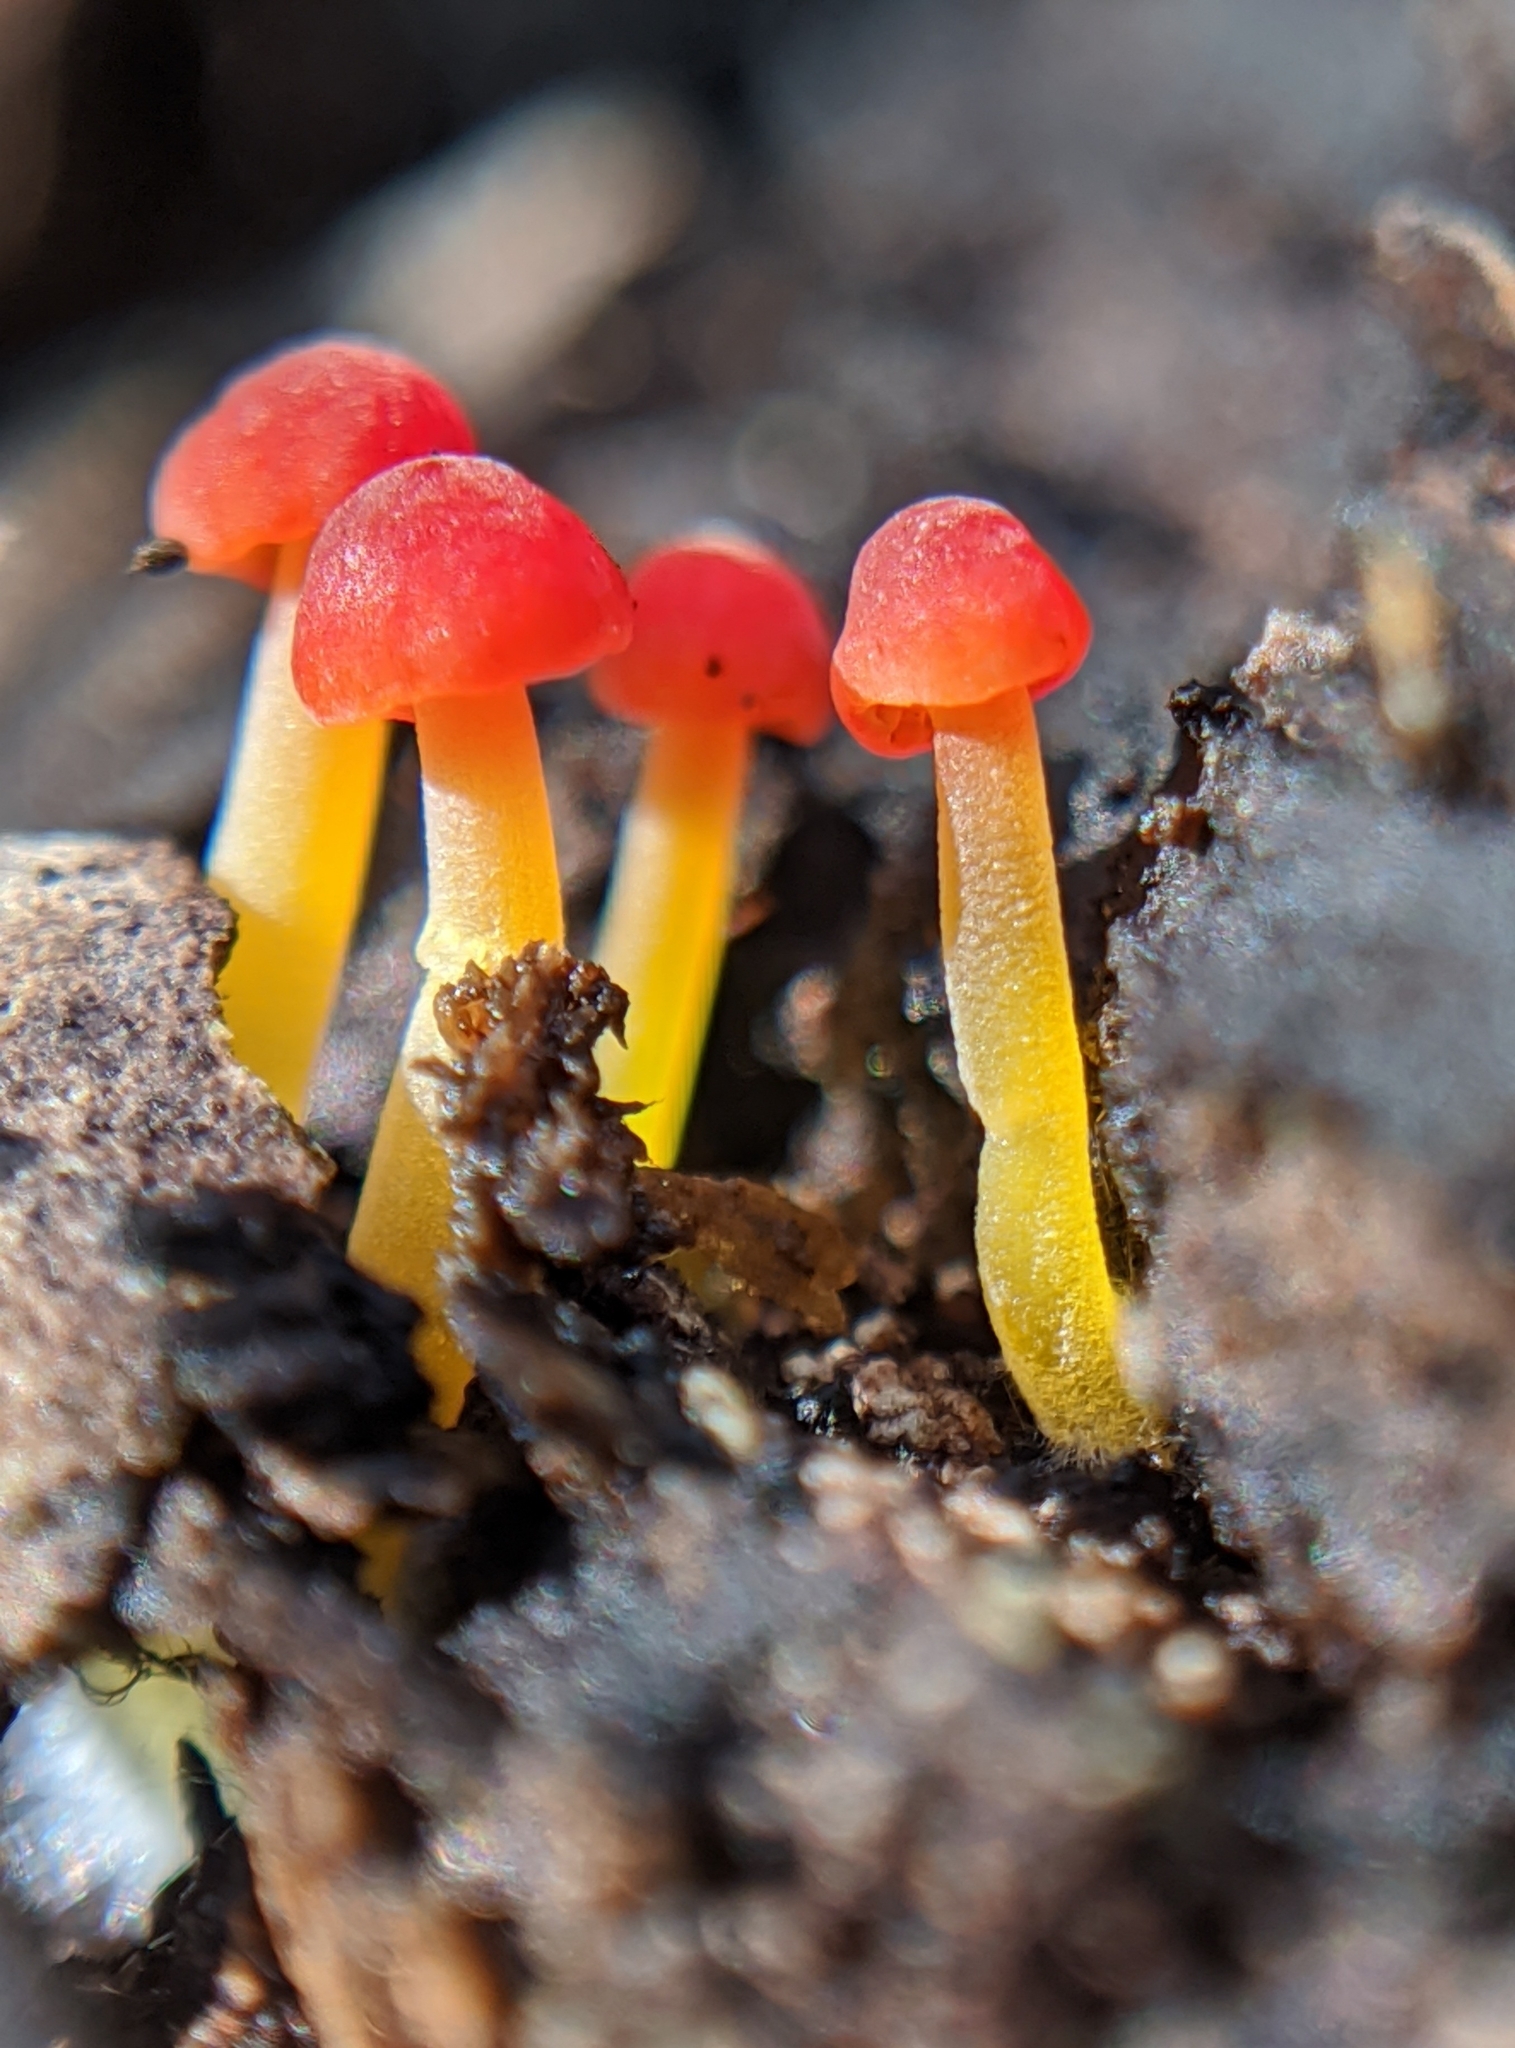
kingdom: Fungi
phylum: Basidiomycota
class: Agaricomycetes
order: Agaricales
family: Mycenaceae
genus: Mycena
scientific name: Mycena acicula
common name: Orange bonnet
